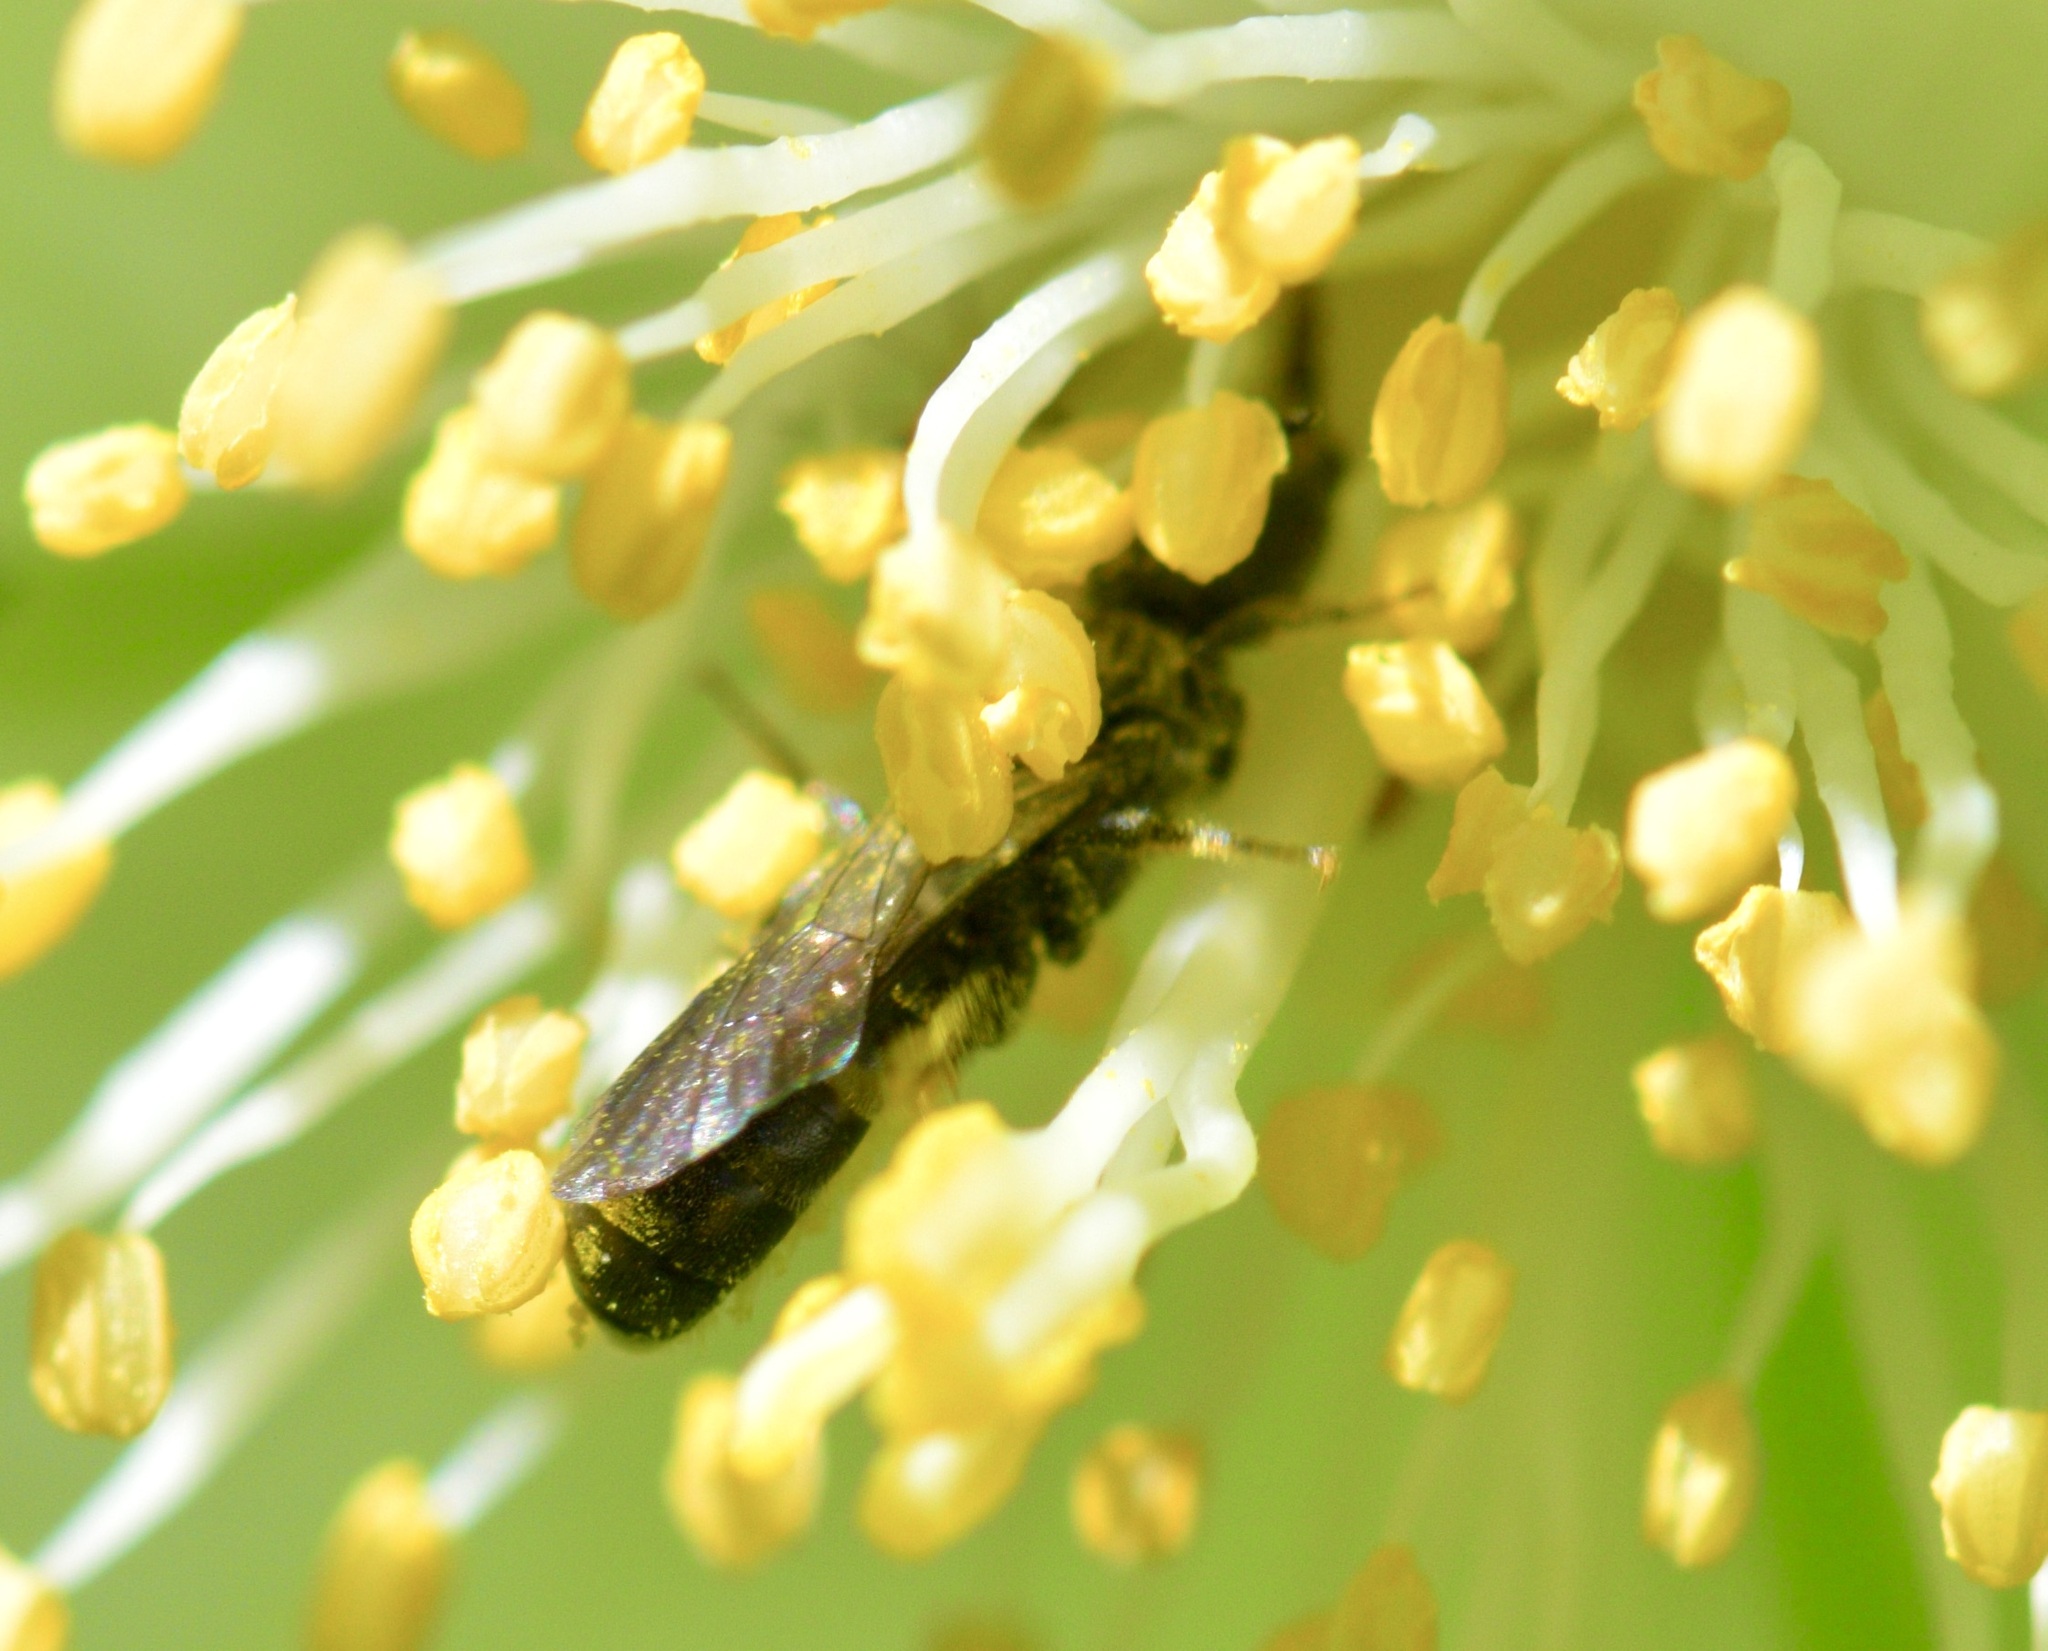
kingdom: Animalia
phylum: Arthropoda
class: Insecta
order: Hymenoptera
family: Megachilidae
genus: Chelostoma
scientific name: Chelostoma philadelphi
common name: Mock-orange scissor bee
